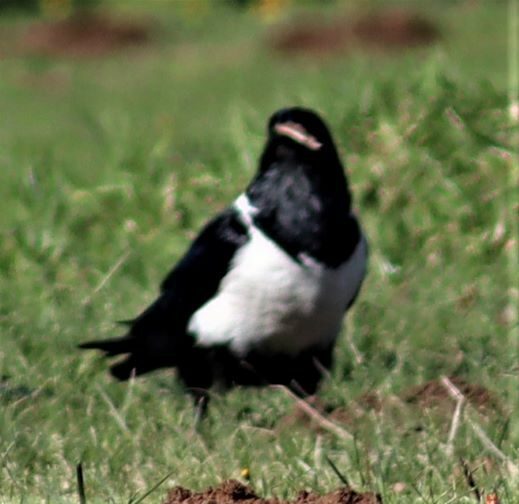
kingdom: Animalia
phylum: Chordata
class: Aves
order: Passeriformes
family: Corvidae
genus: Corvus
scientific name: Corvus albus
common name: Pied crow
